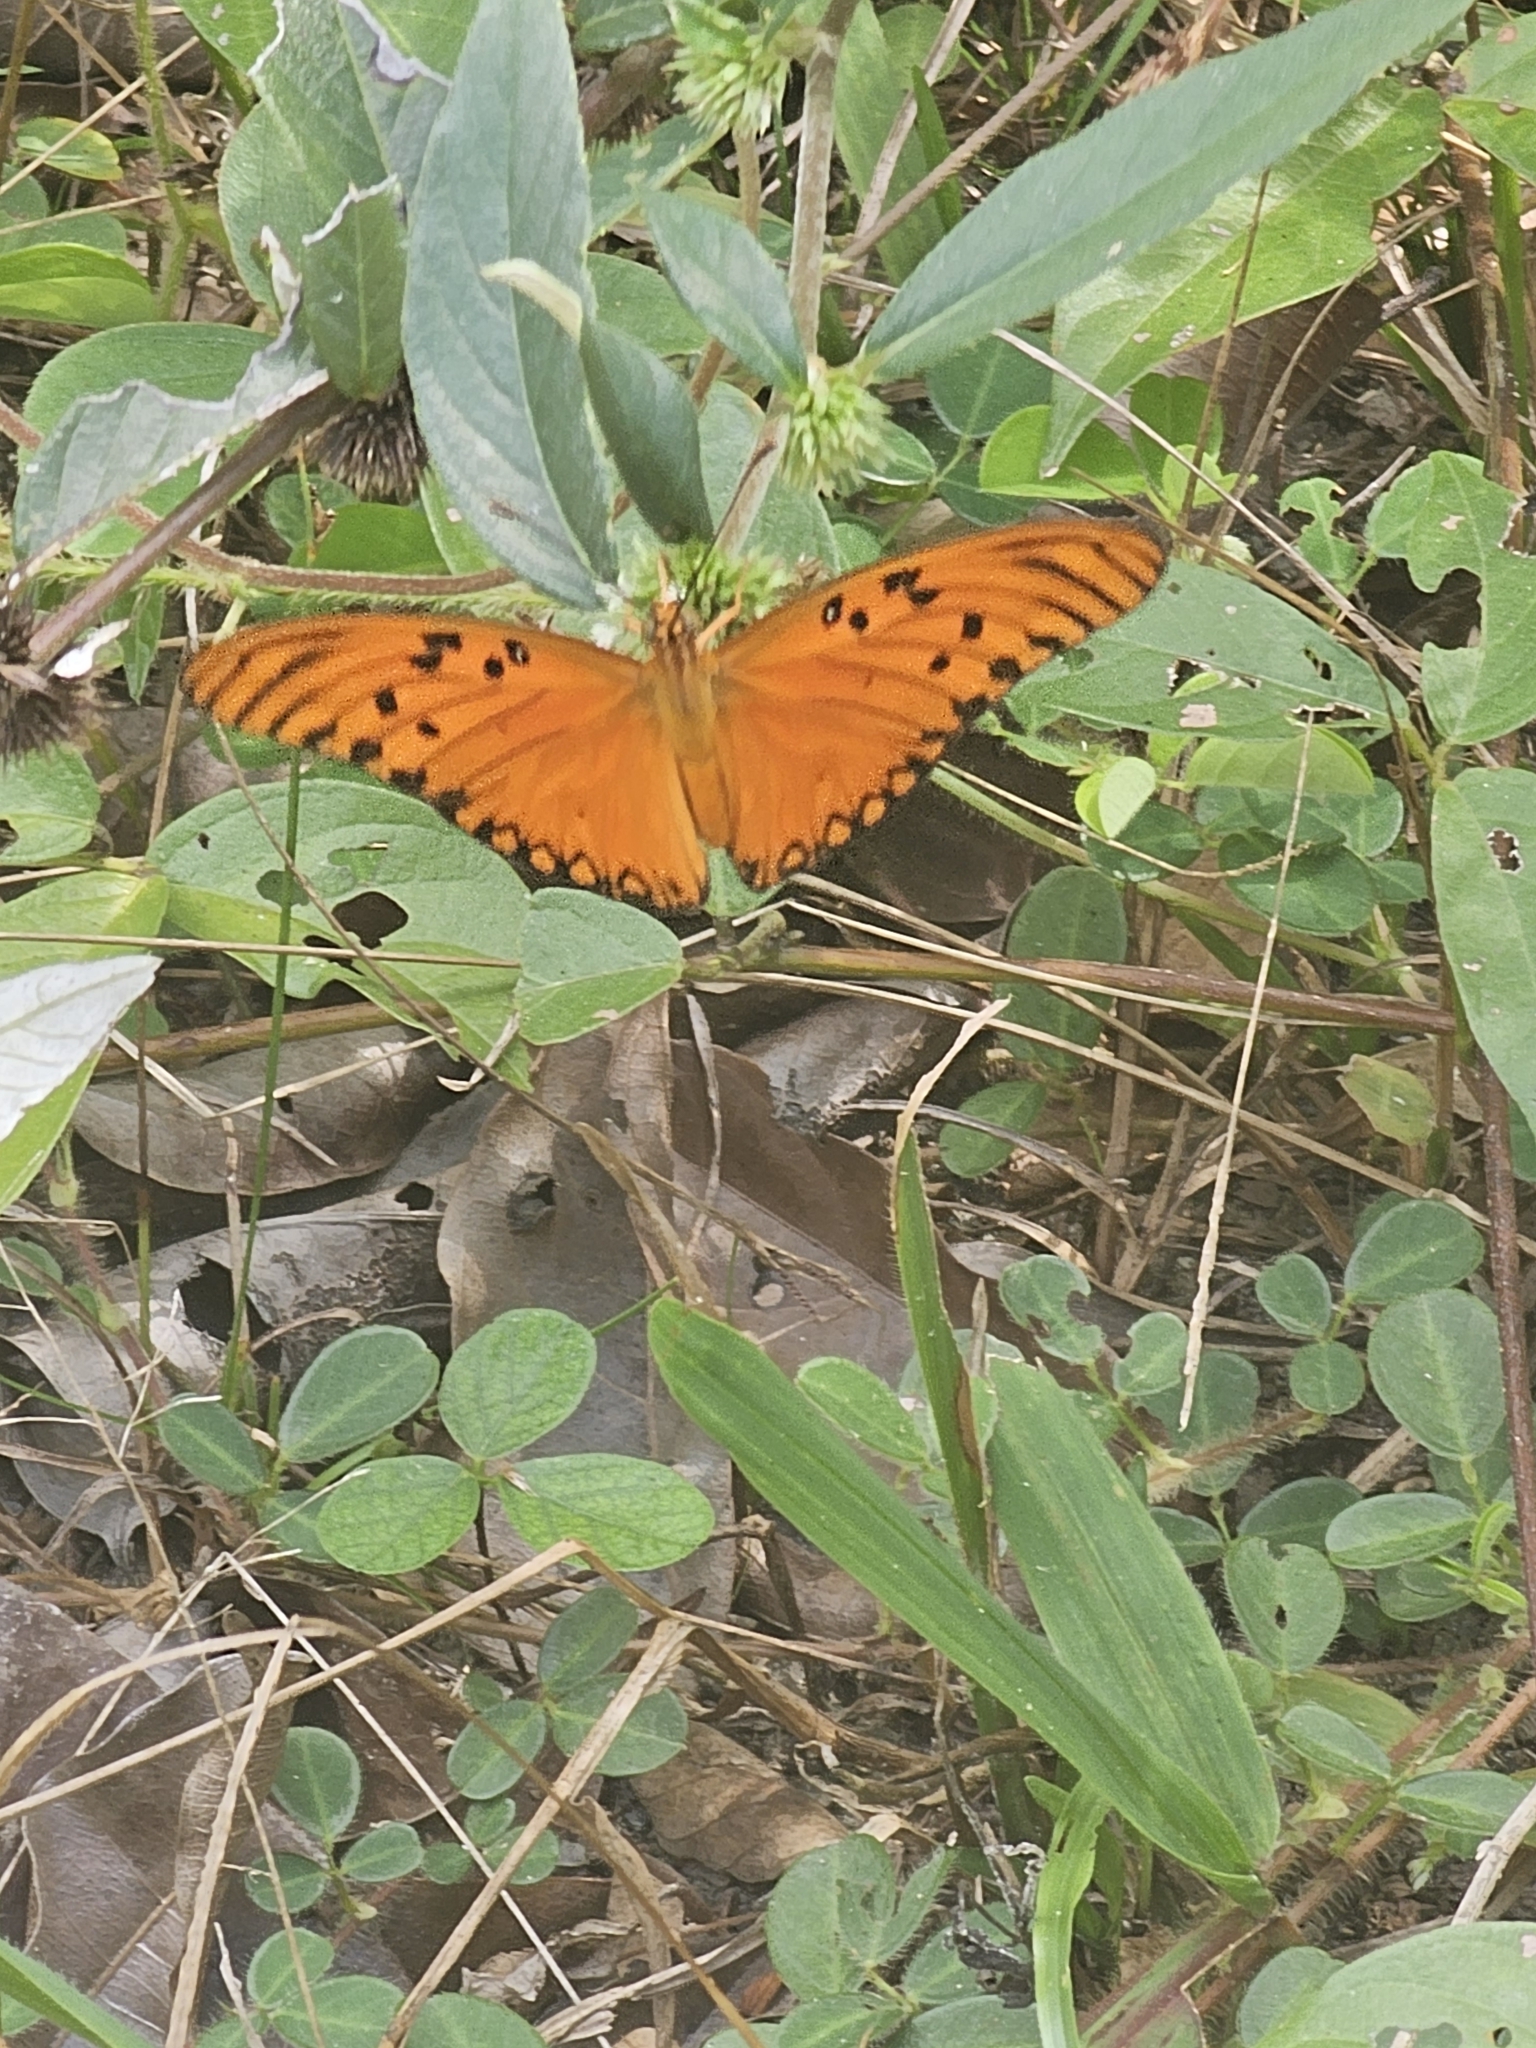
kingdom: Animalia
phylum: Arthropoda
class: Insecta
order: Lepidoptera
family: Nymphalidae
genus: Dione
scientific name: Dione vanillae
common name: Gulf fritillary
